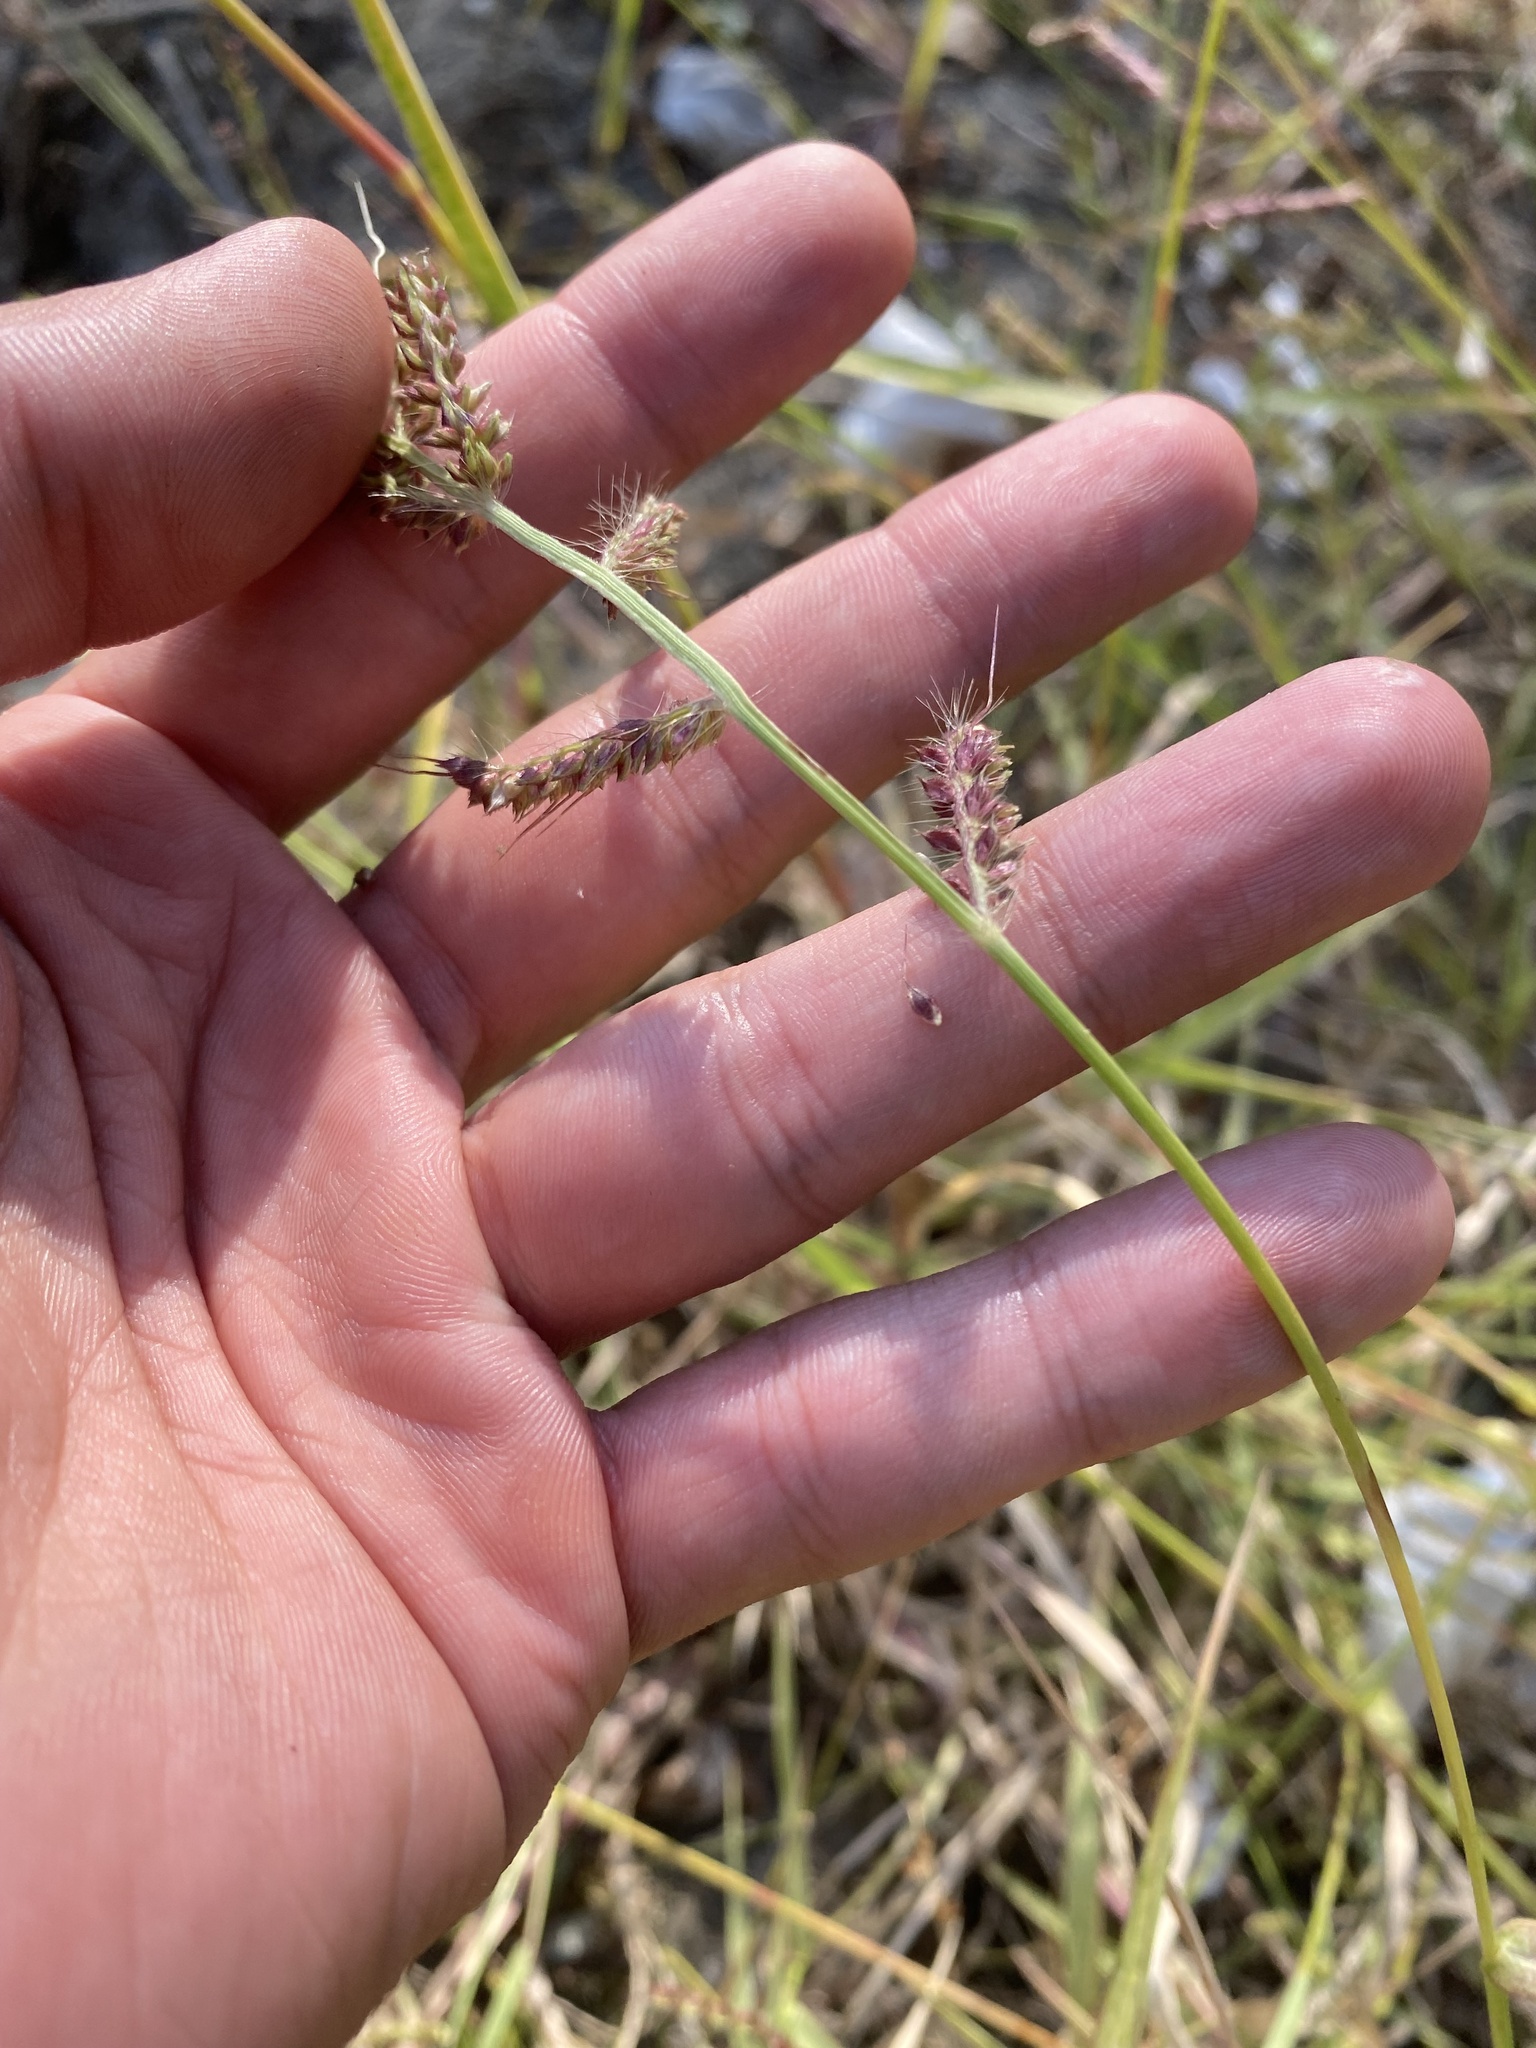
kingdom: Plantae
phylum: Tracheophyta
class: Liliopsida
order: Poales
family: Poaceae
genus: Echinochloa
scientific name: Echinochloa crus-galli
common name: Cockspur
